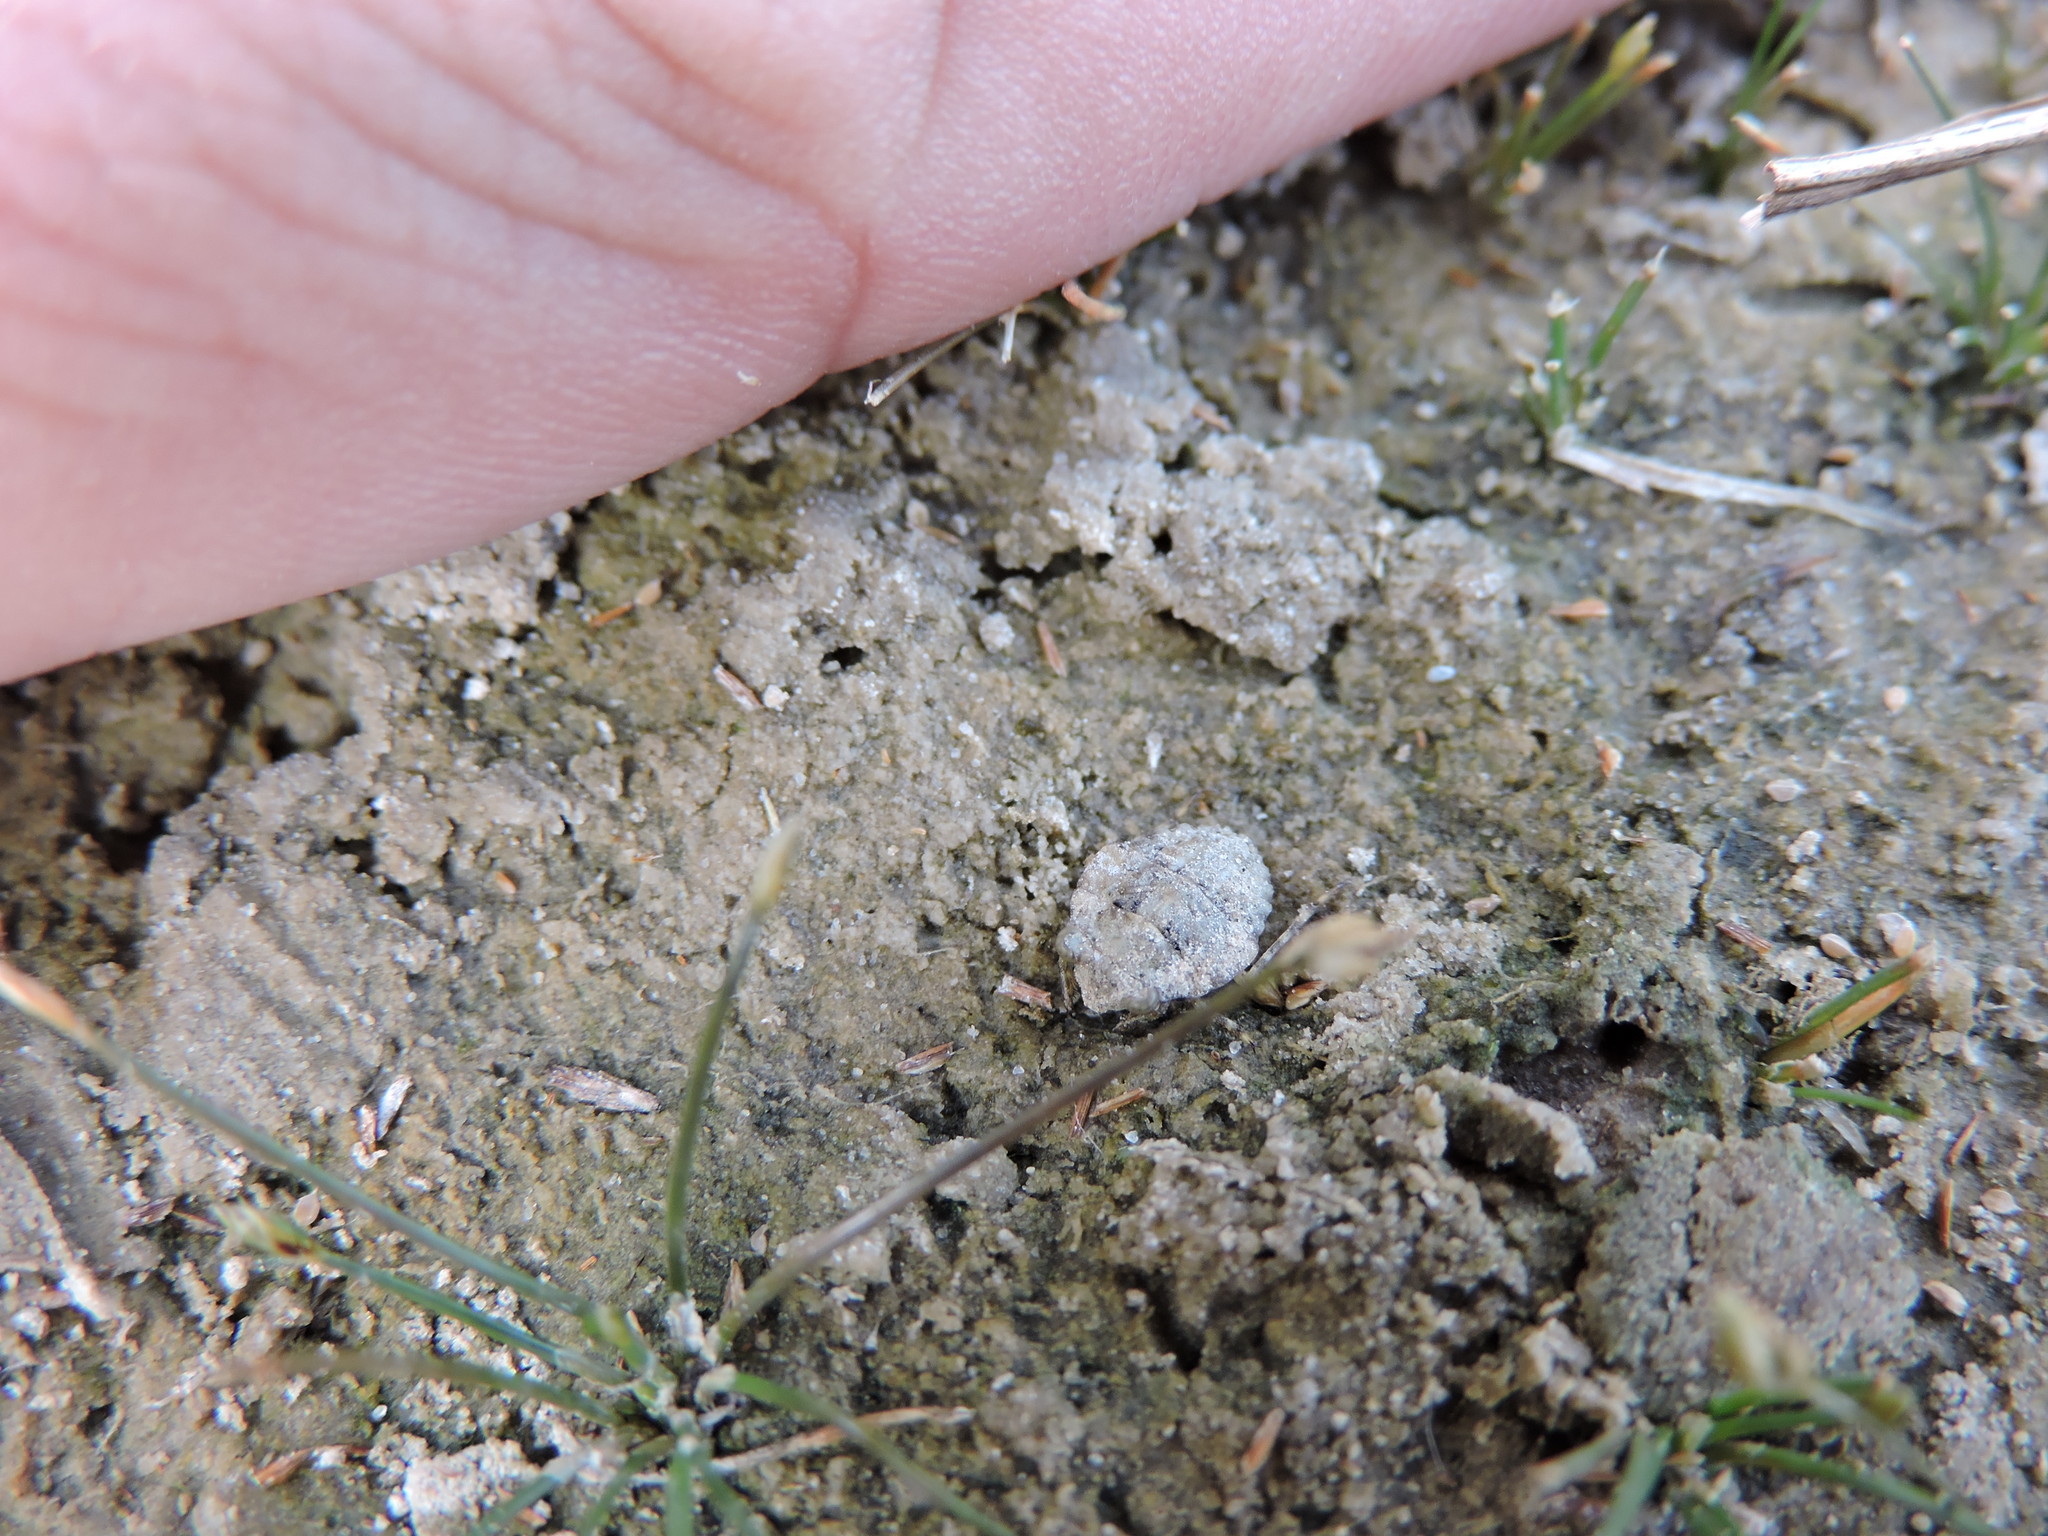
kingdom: Animalia
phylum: Arthropoda
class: Insecta
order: Hemiptera
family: Gelastocoridae
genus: Gelastocoris
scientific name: Gelastocoris oculatus
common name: Toad bug
